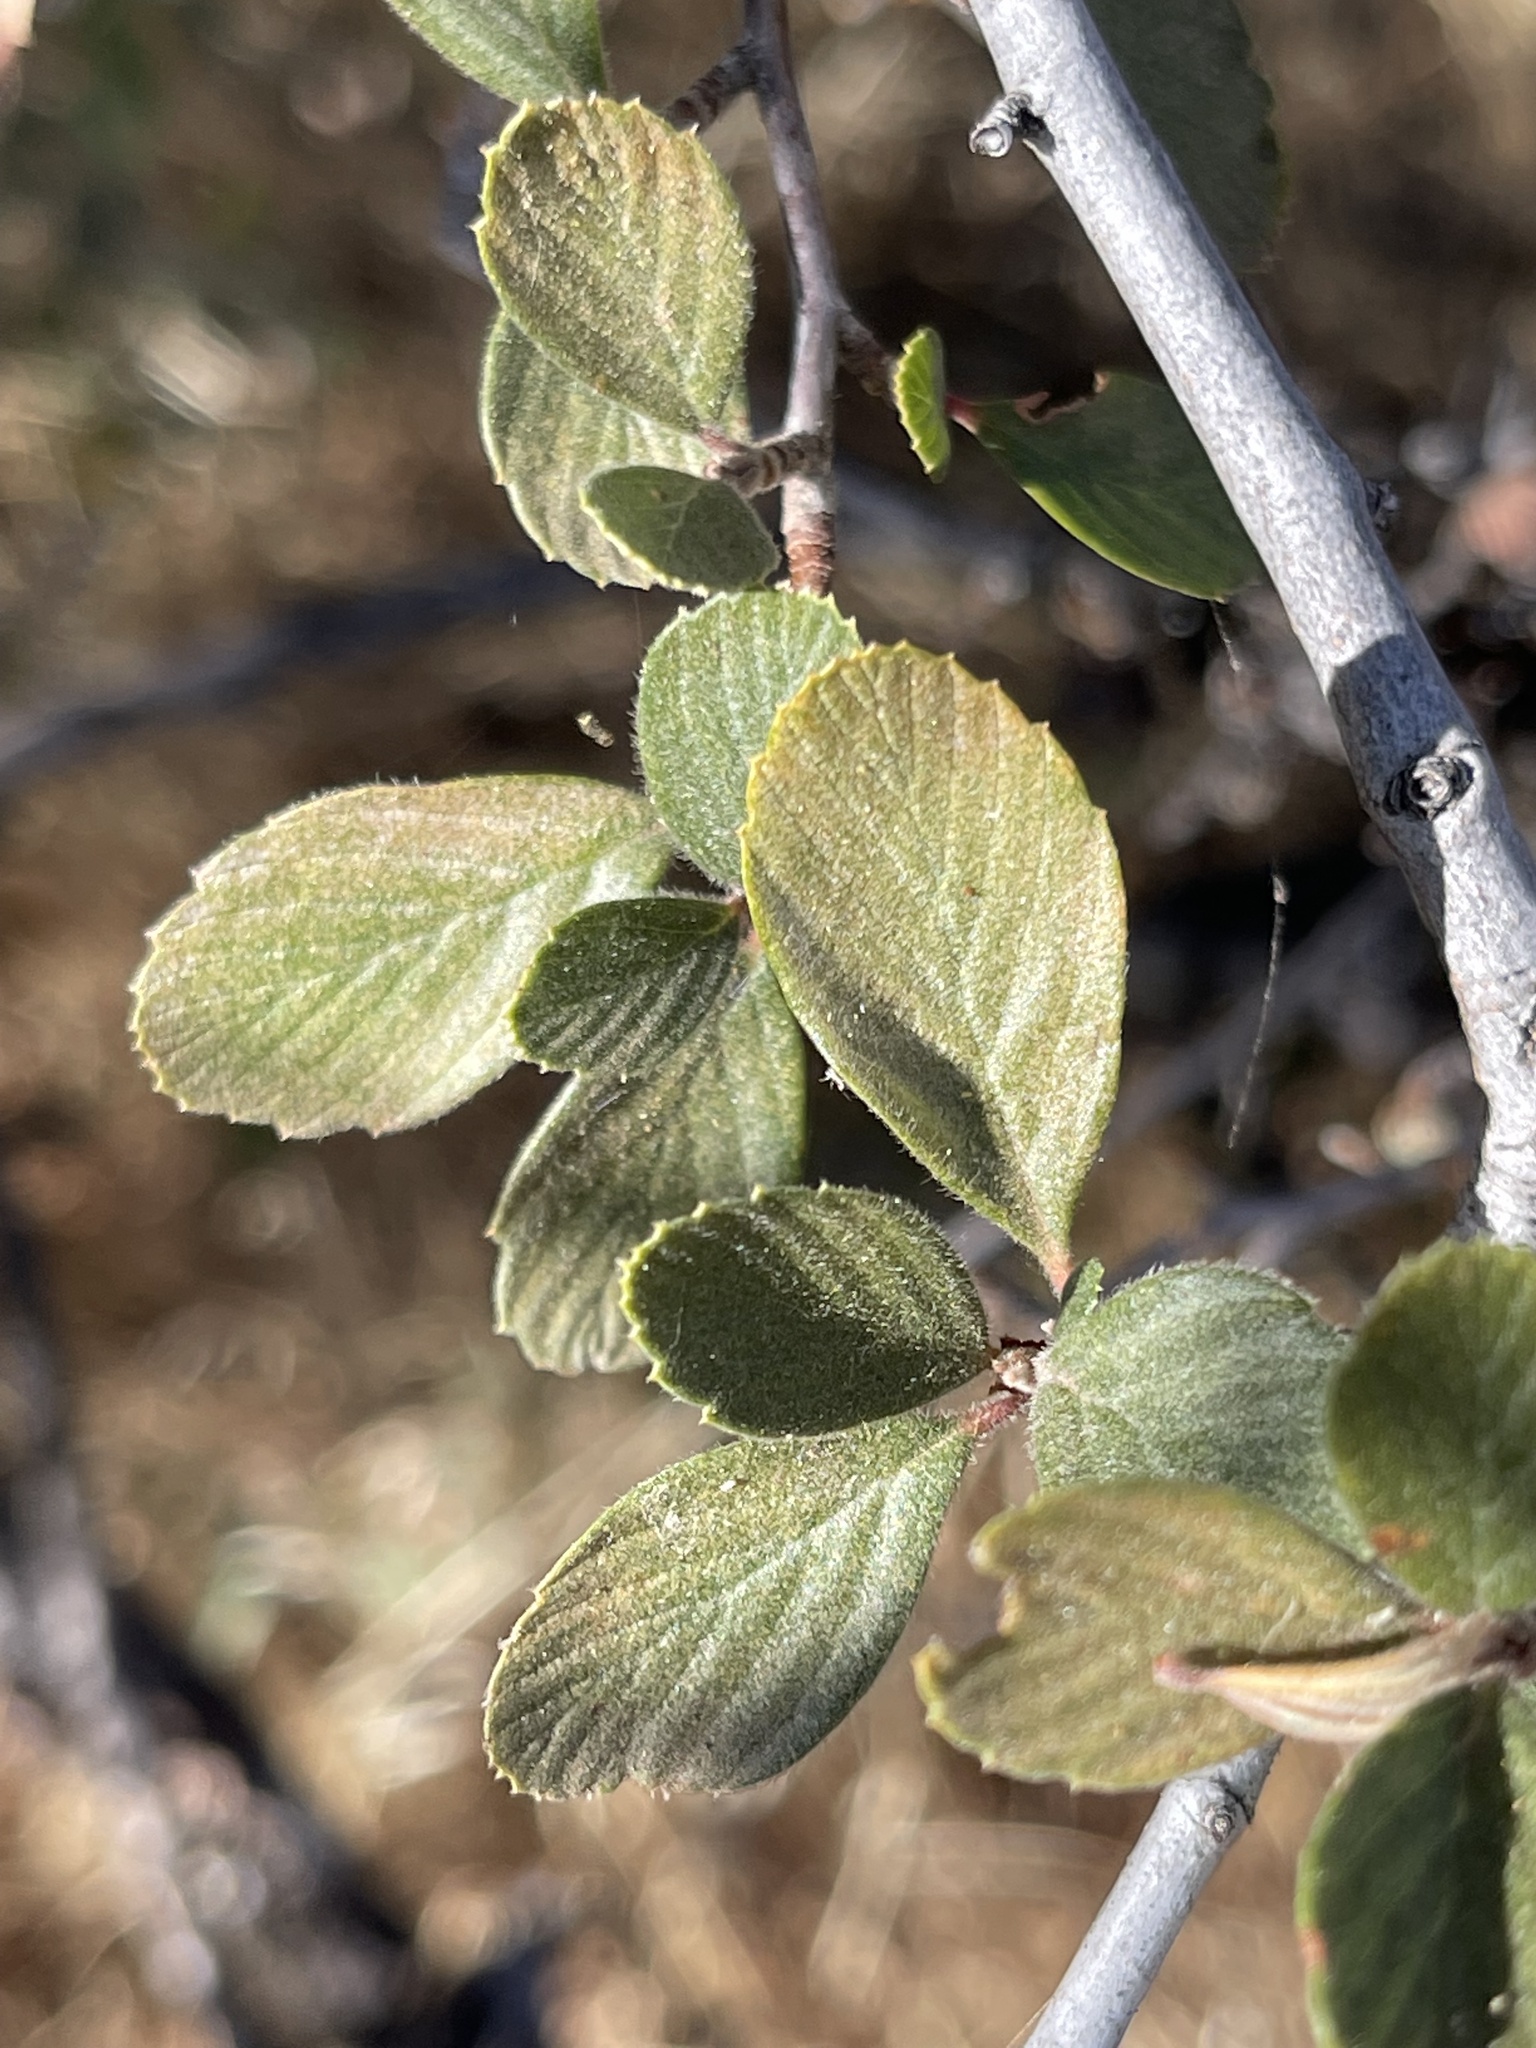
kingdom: Plantae
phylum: Tracheophyta
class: Magnoliopsida
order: Rosales
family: Rosaceae
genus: Cercocarpus
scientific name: Cercocarpus betuloides
